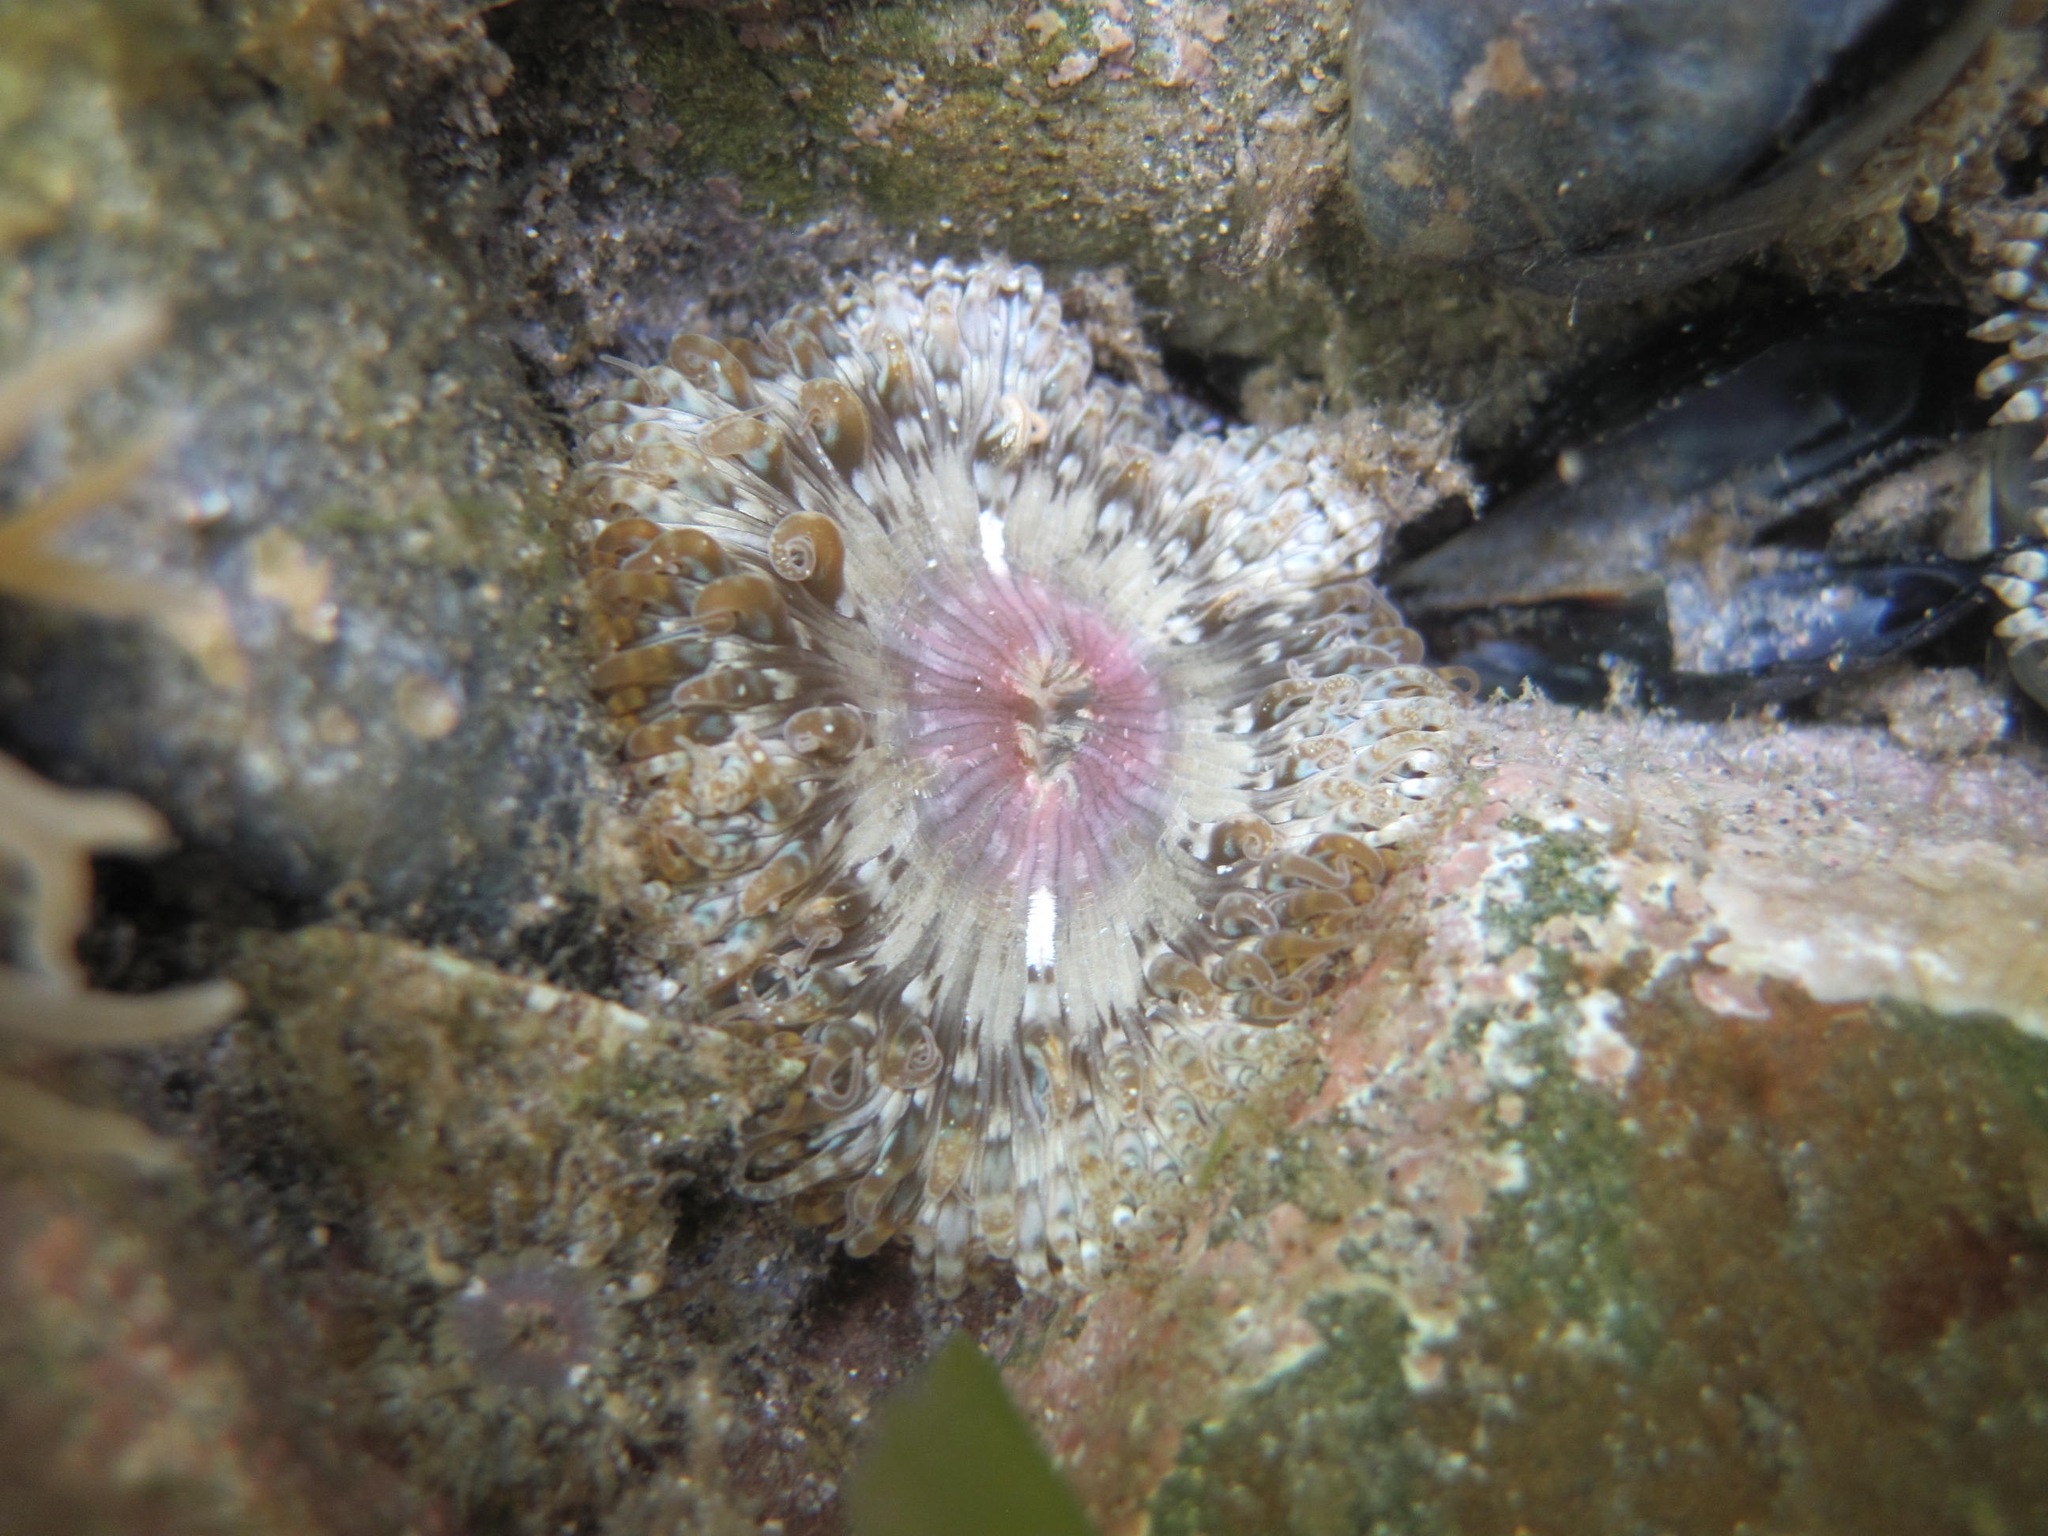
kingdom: Animalia
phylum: Cnidaria
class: Anthozoa
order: Actiniaria
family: Sagartiidae
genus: Cereus
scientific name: Cereus pedunculatus
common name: Daisy anemone
